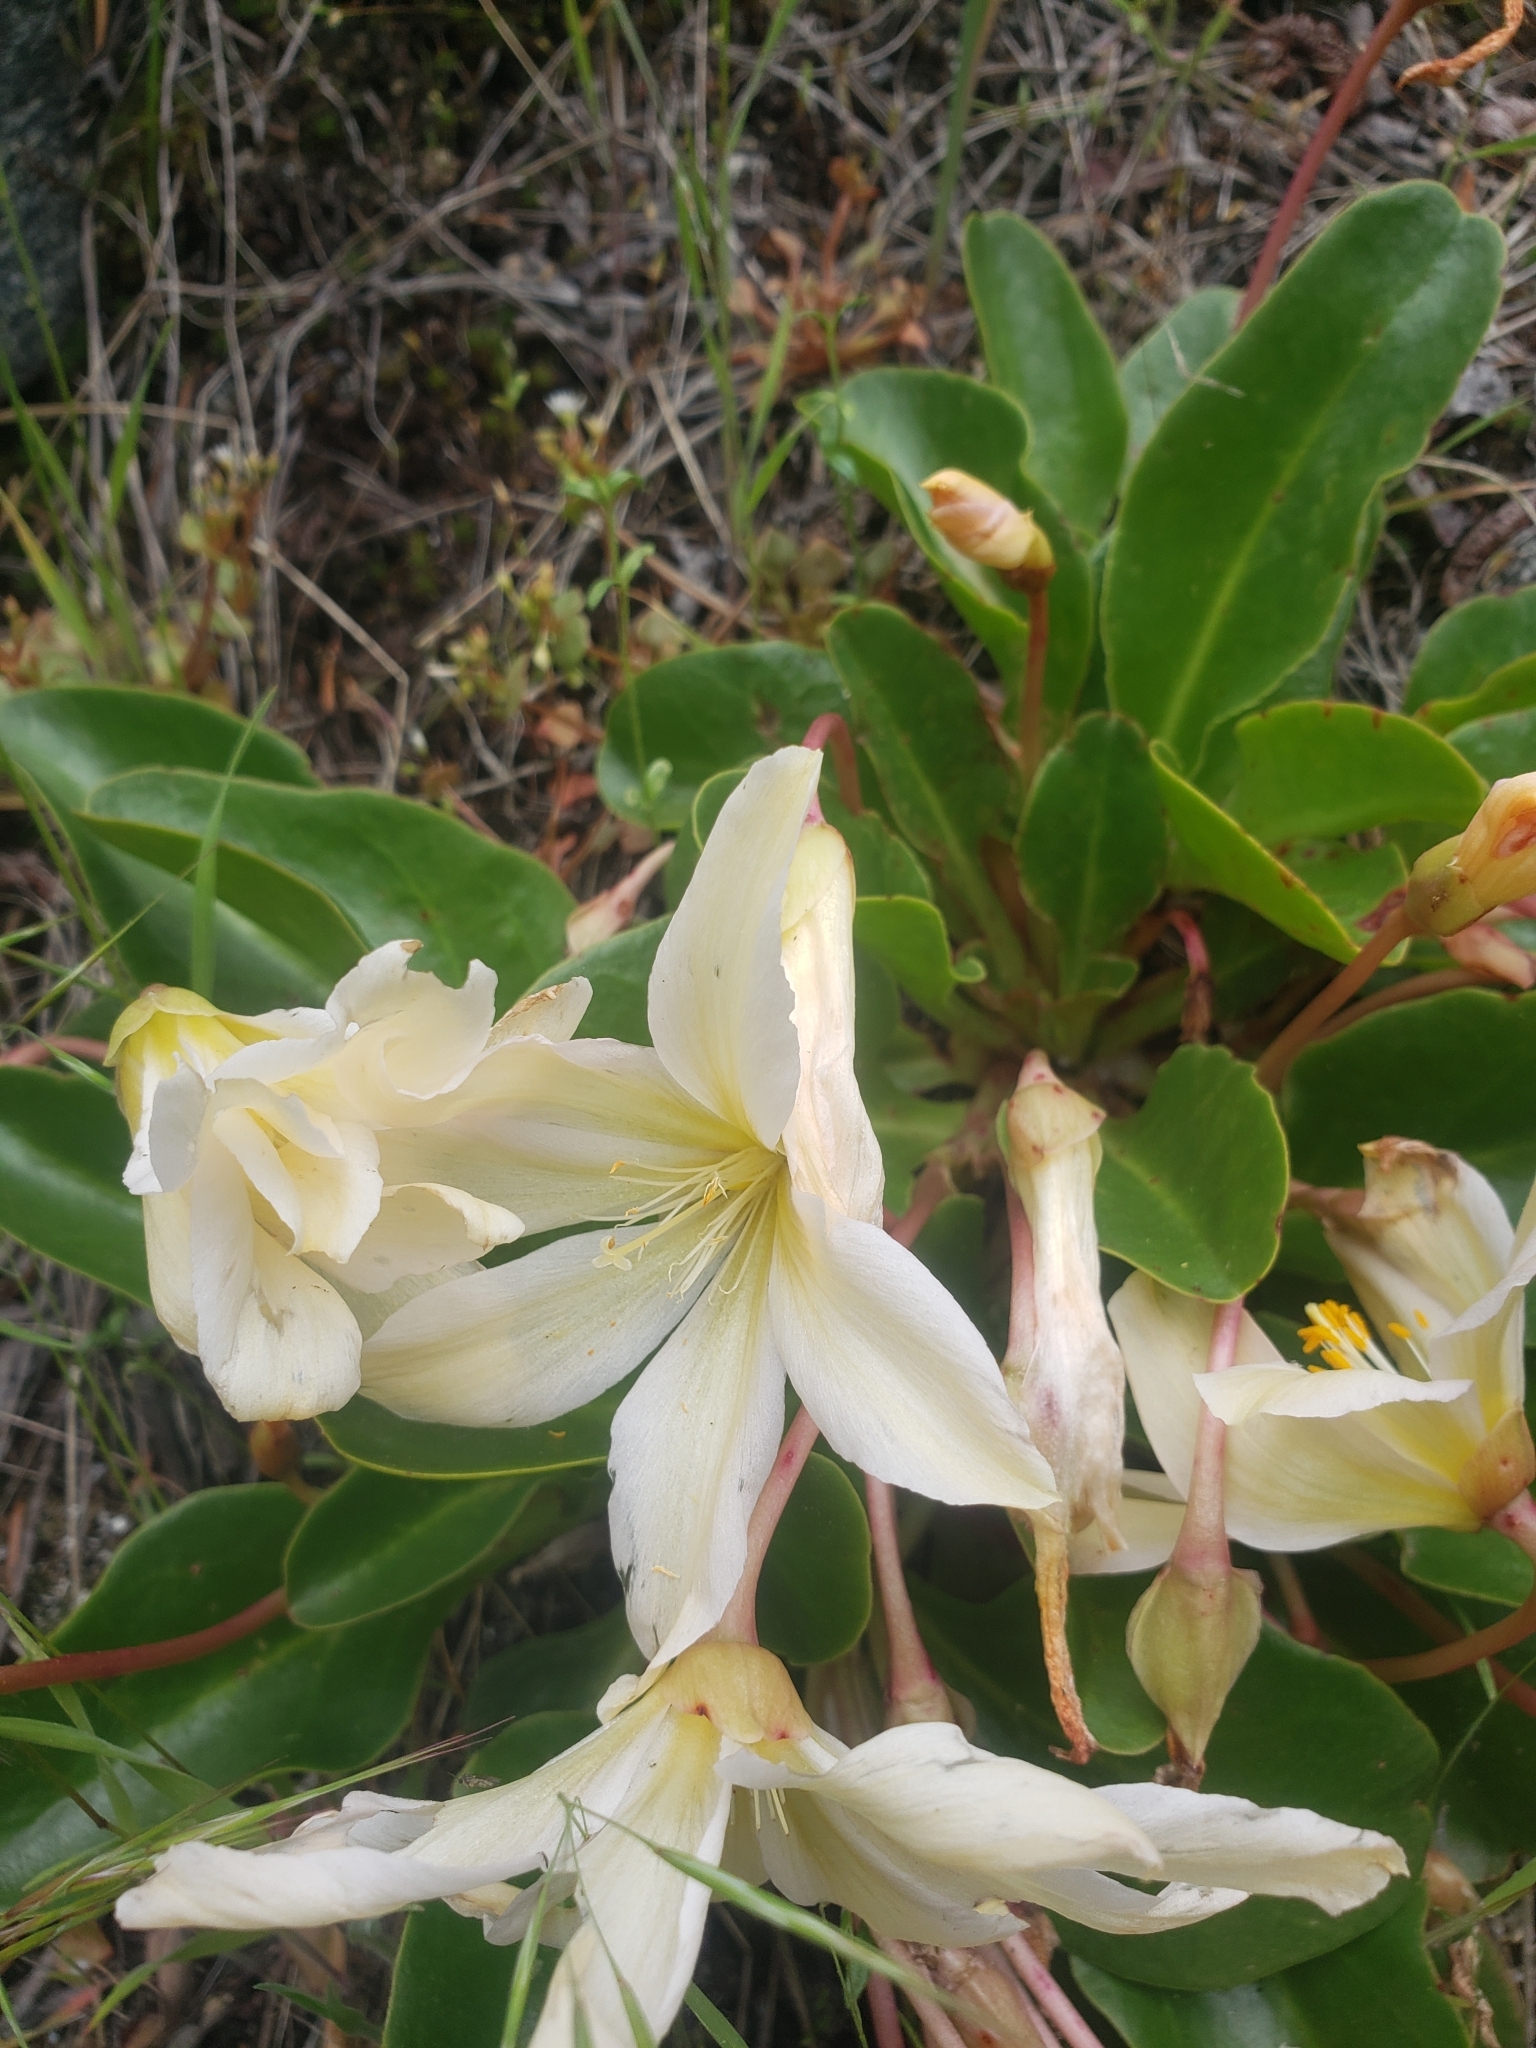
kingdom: Plantae
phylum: Tracheophyta
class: Magnoliopsida
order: Caryophyllales
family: Montiaceae
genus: Lewisiopsis
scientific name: Lewisiopsis tweedyi
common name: Tweedy's pussypaws
